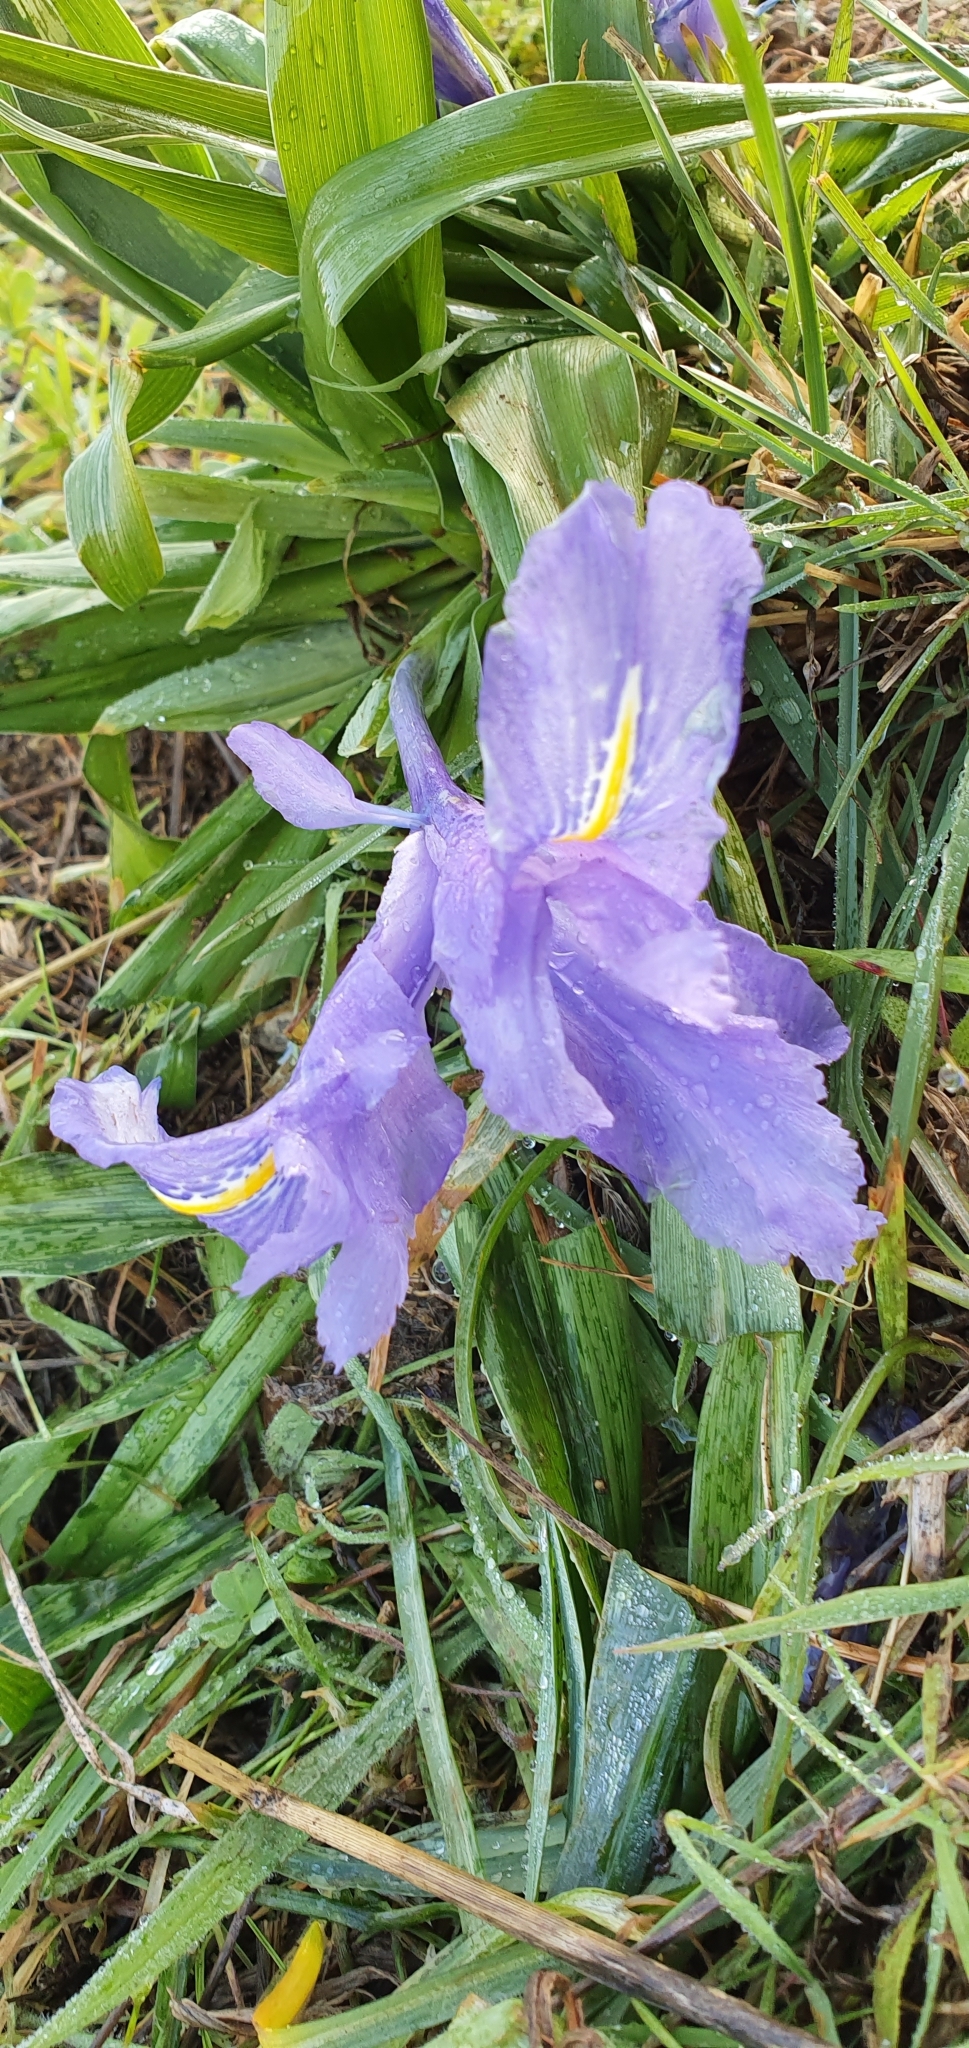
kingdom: Plantae
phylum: Tracheophyta
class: Liliopsida
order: Asparagales
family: Iridaceae
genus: Iris
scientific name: Iris planifolia
